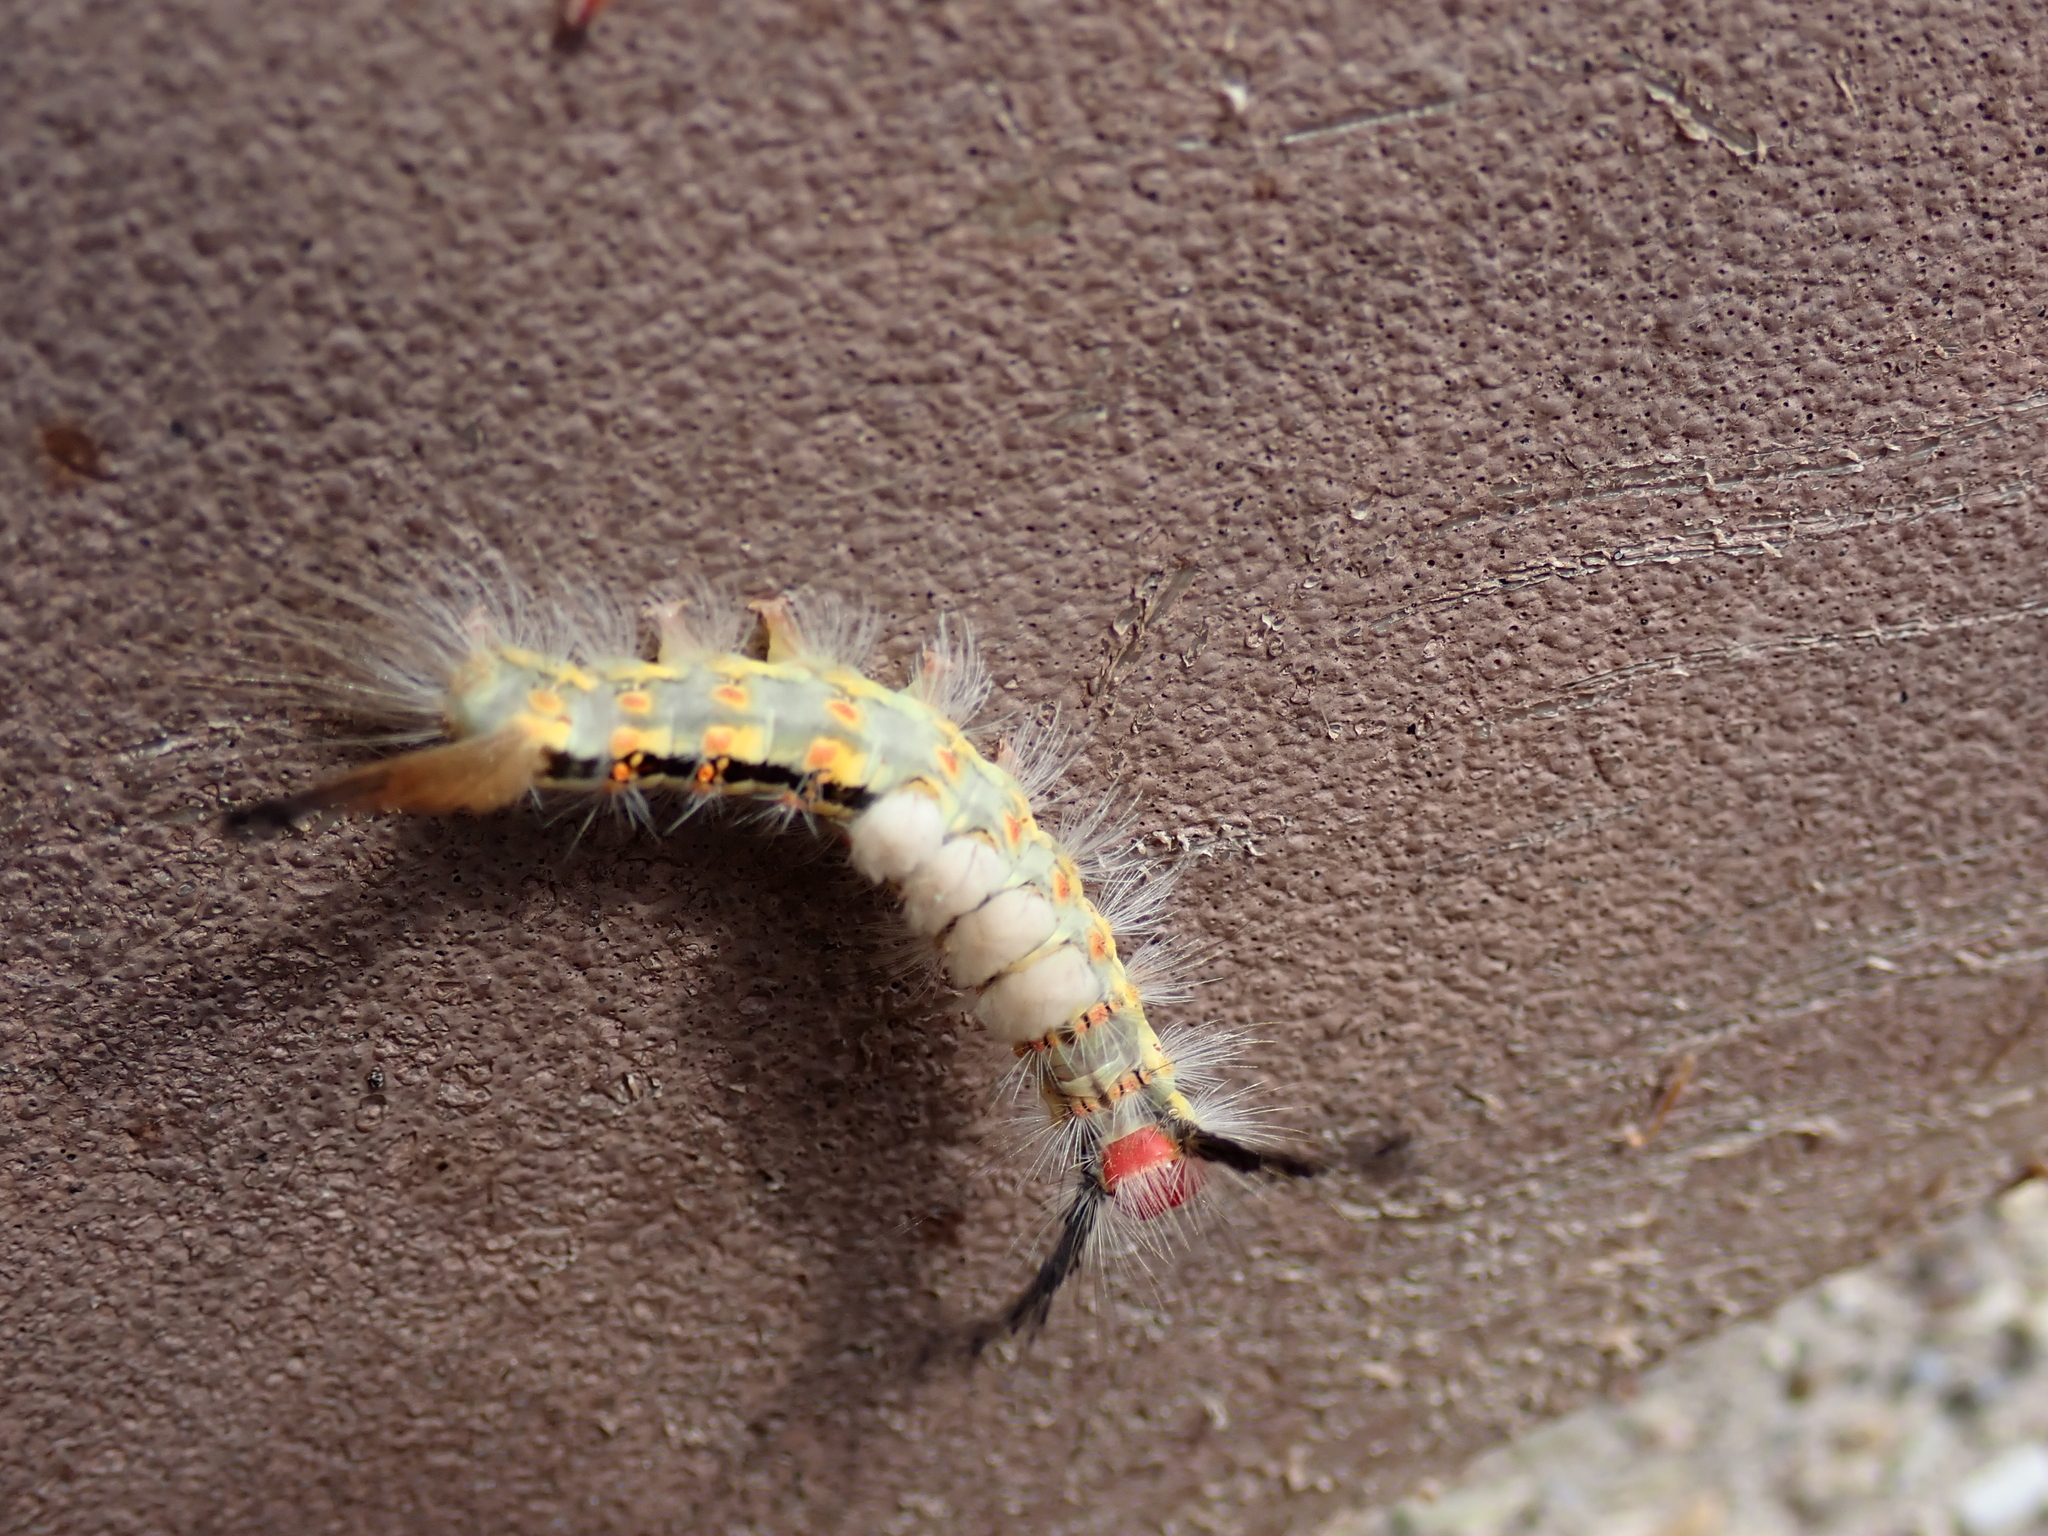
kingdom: Animalia
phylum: Arthropoda
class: Insecta
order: Lepidoptera
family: Erebidae
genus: Orgyia
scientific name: Orgyia detrita
